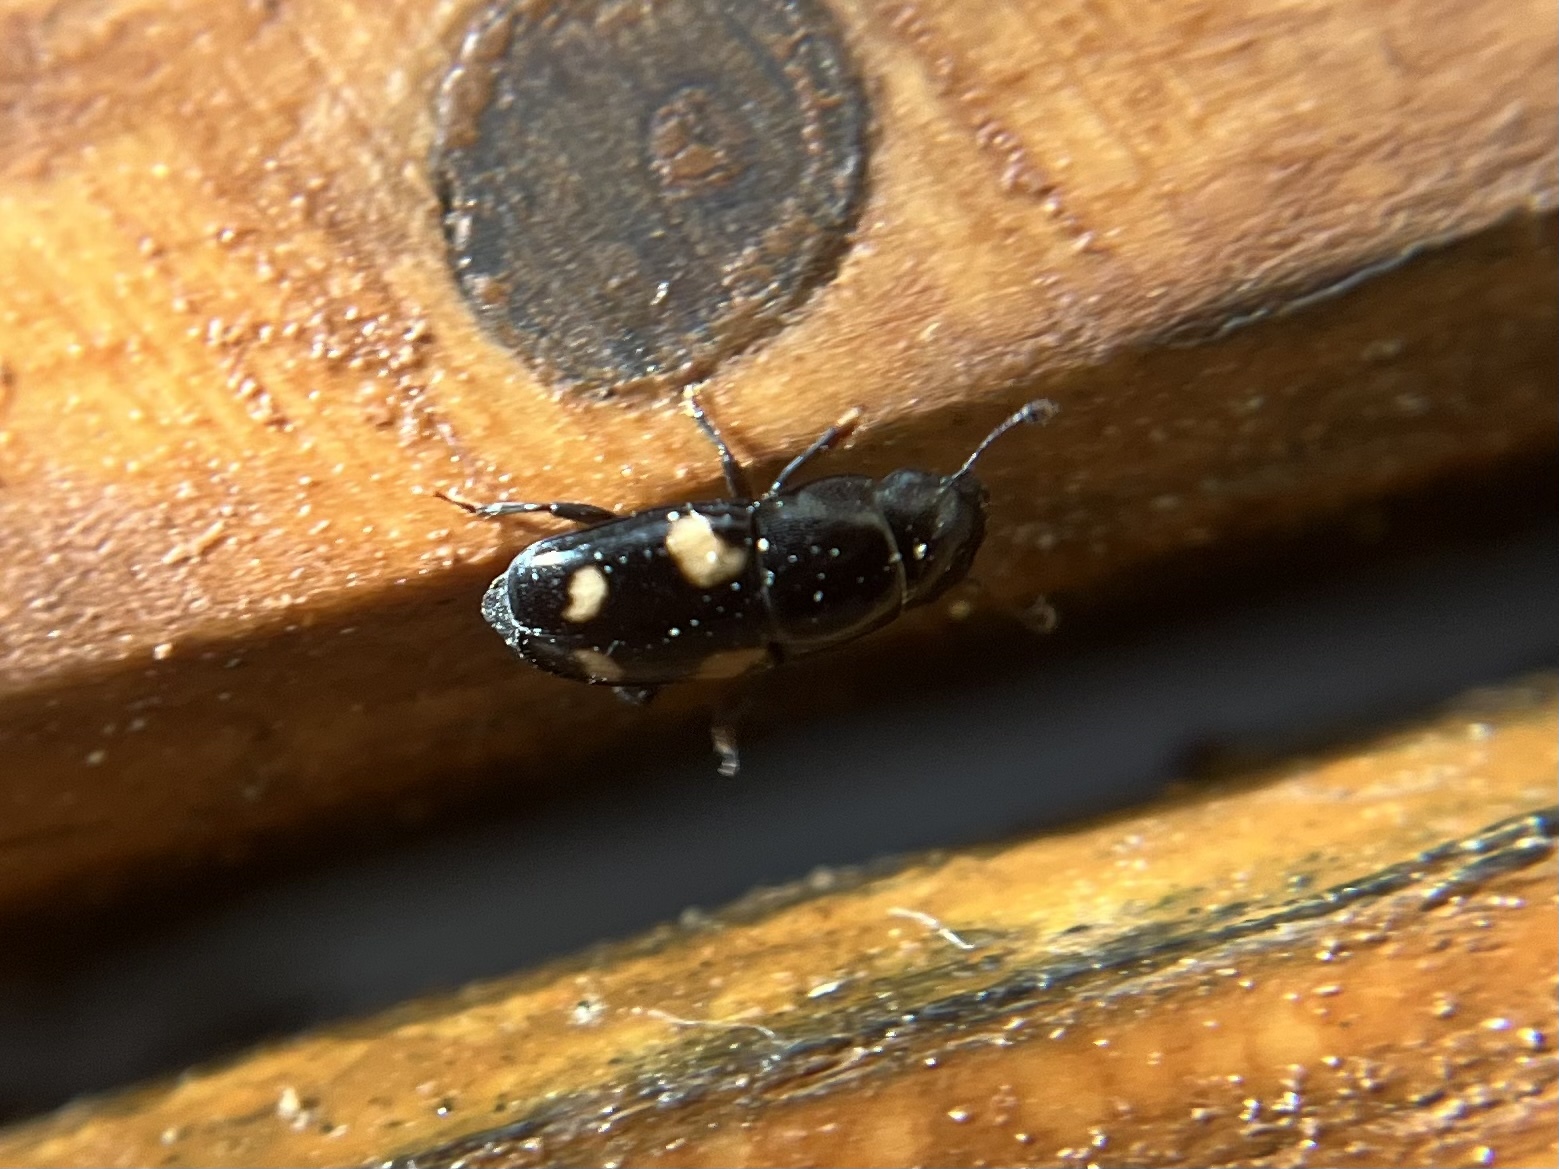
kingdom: Animalia
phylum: Arthropoda
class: Insecta
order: Coleoptera
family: Nitidulidae
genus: Glischrochilus
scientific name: Glischrochilus quadrisignatus
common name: Picnic beetle
